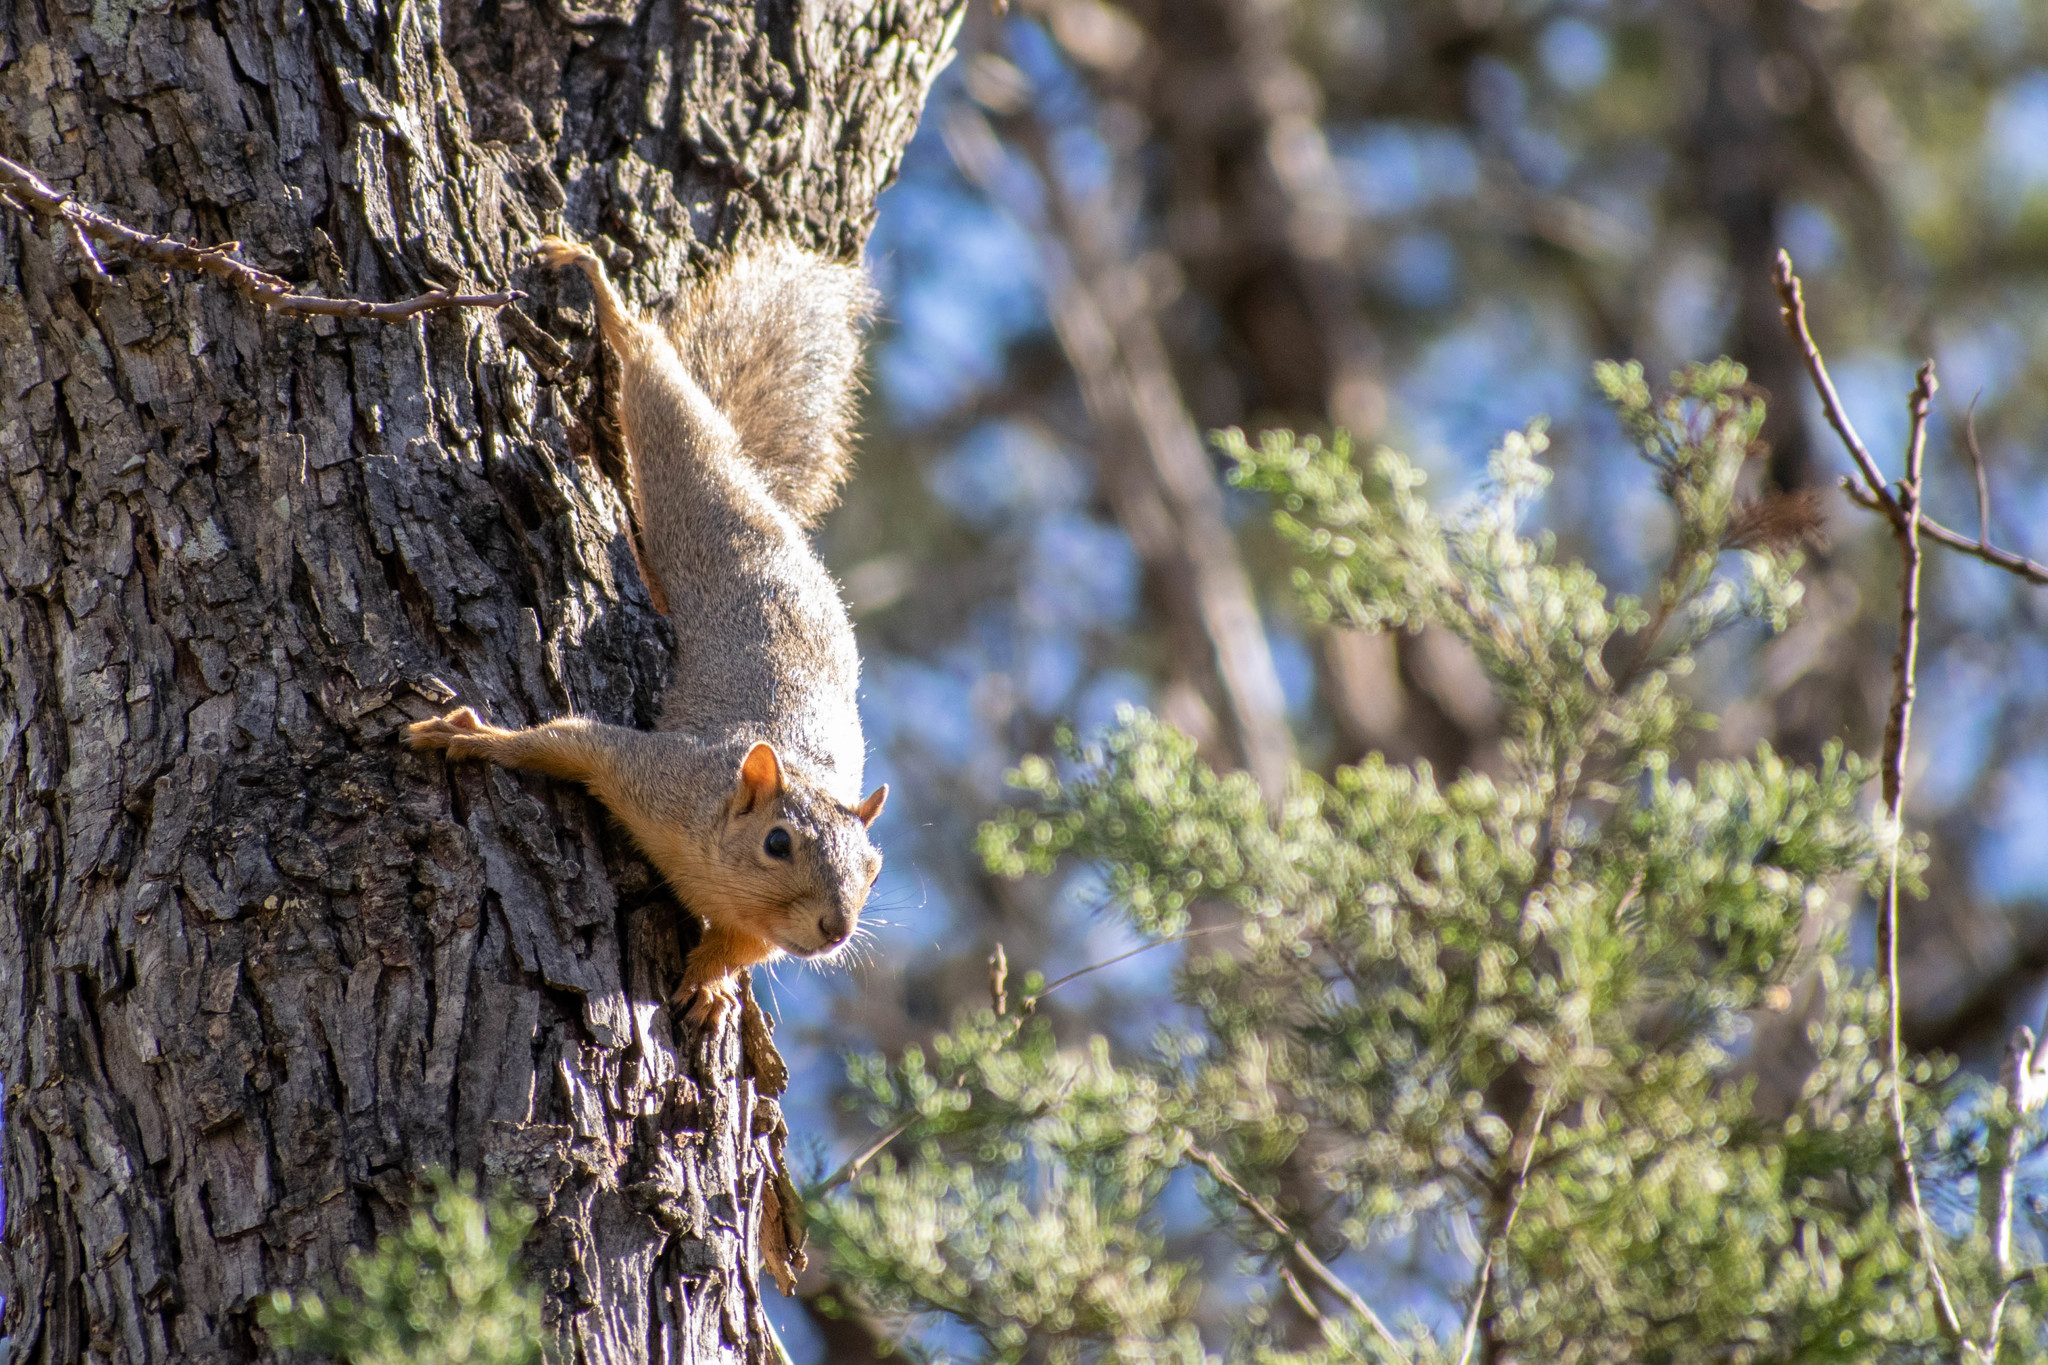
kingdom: Animalia
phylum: Chordata
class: Mammalia
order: Rodentia
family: Sciuridae
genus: Sciurus
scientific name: Sciurus niger
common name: Fox squirrel
